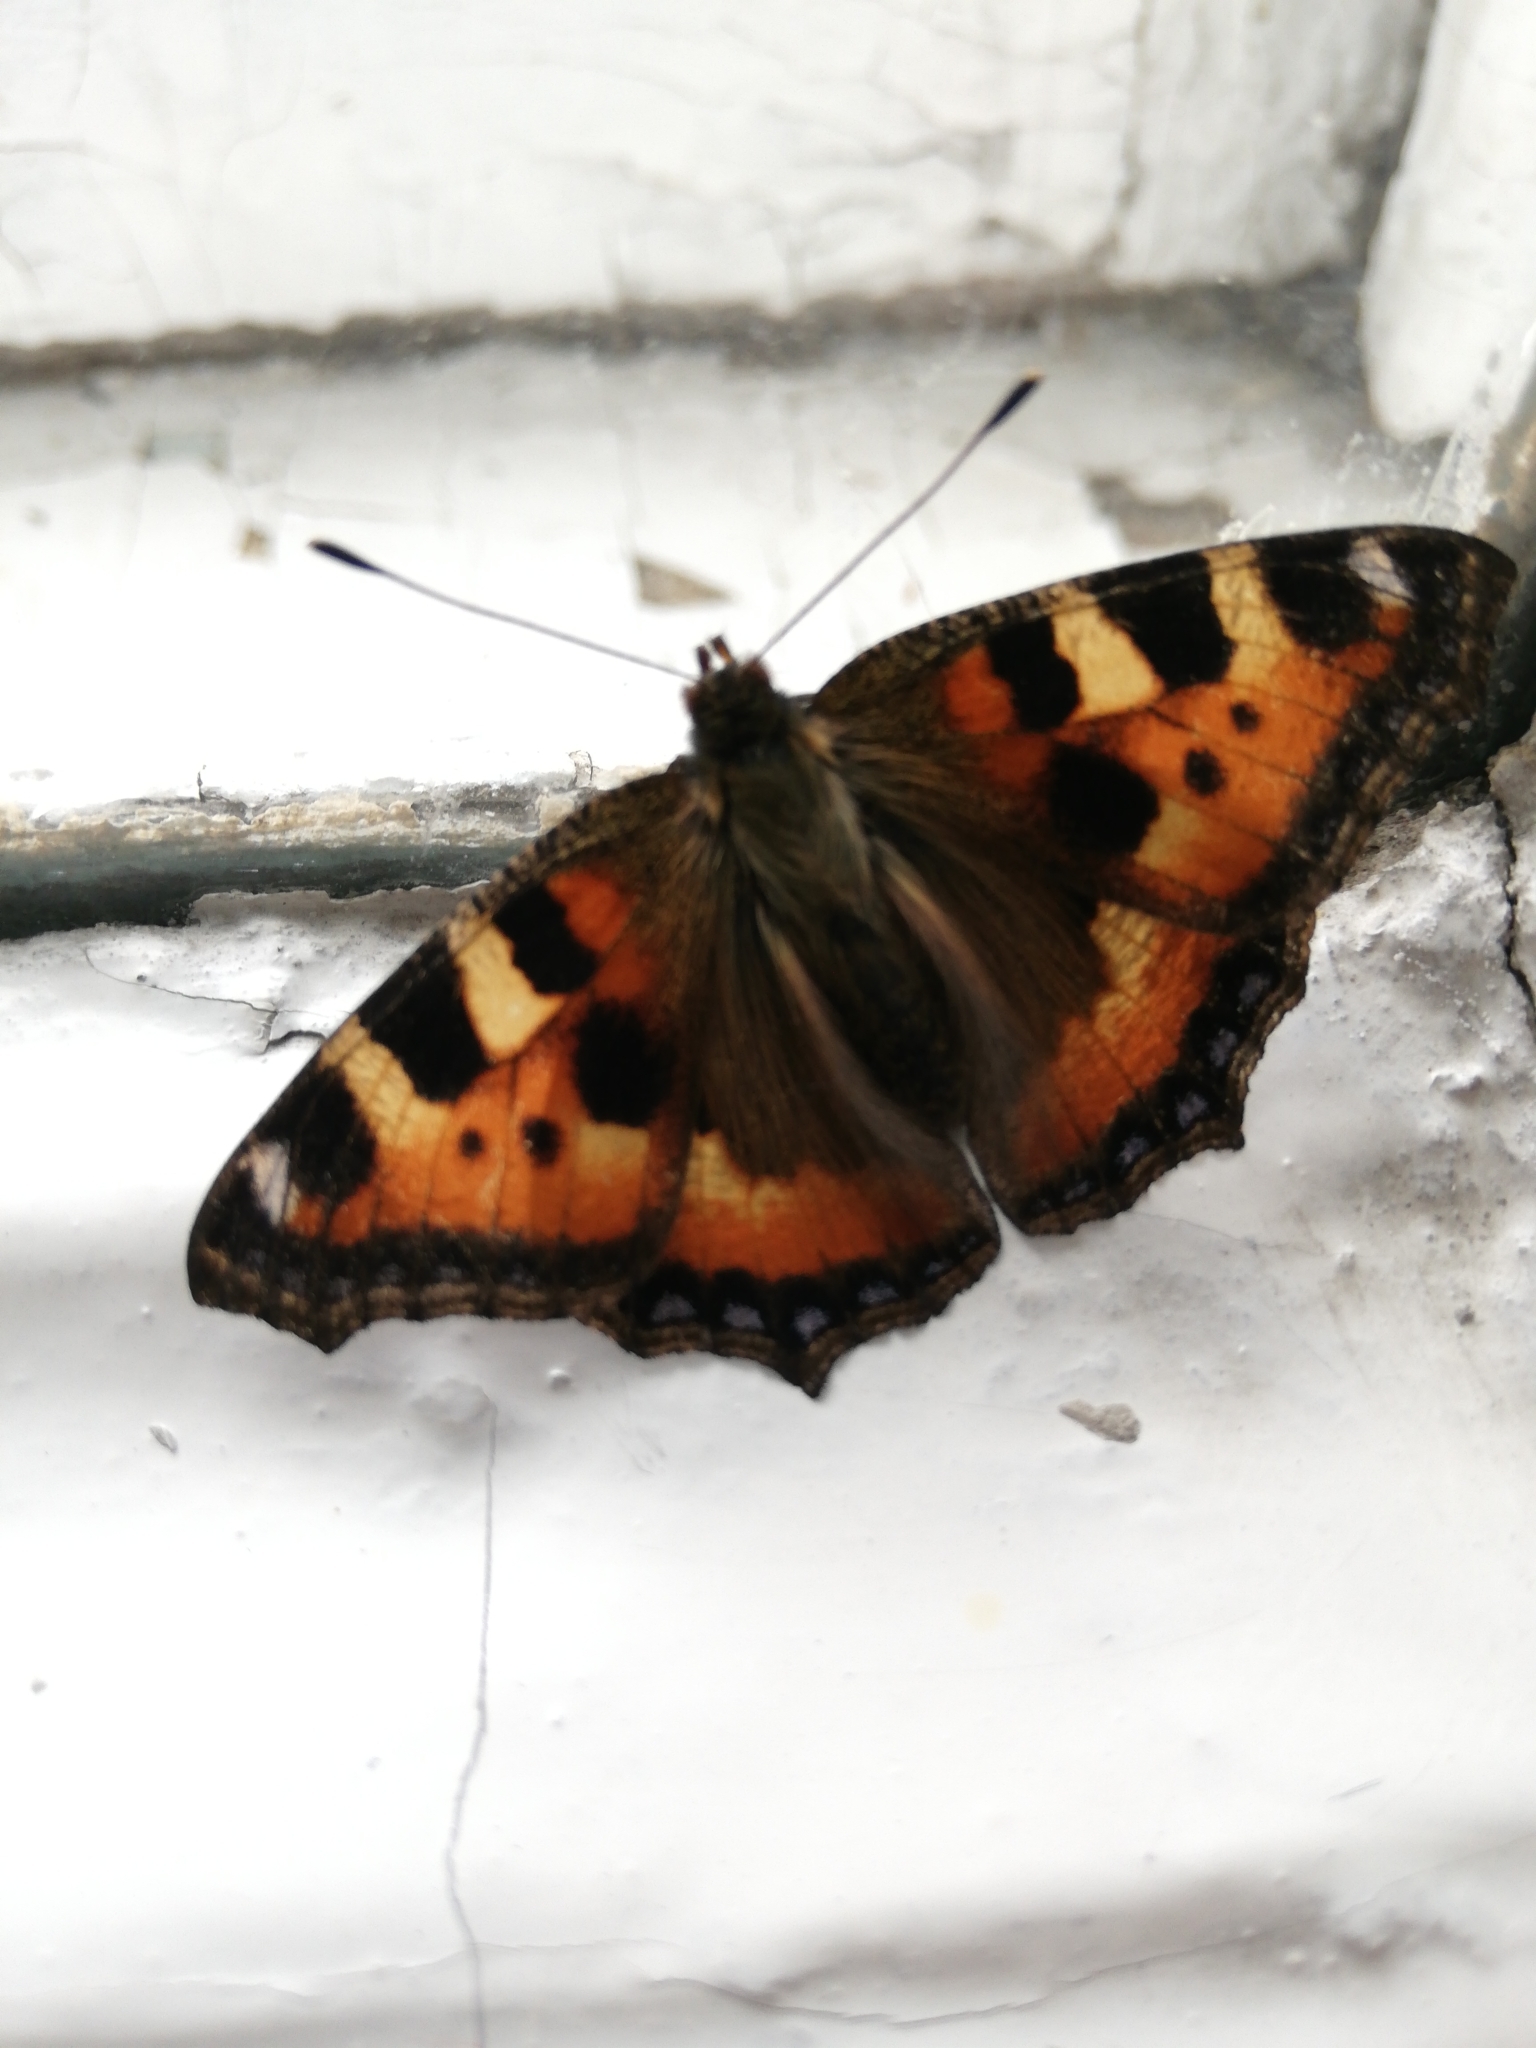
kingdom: Animalia
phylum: Arthropoda
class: Insecta
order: Lepidoptera
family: Nymphalidae
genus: Aglais
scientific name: Aglais urticae
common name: Small tortoiseshell
